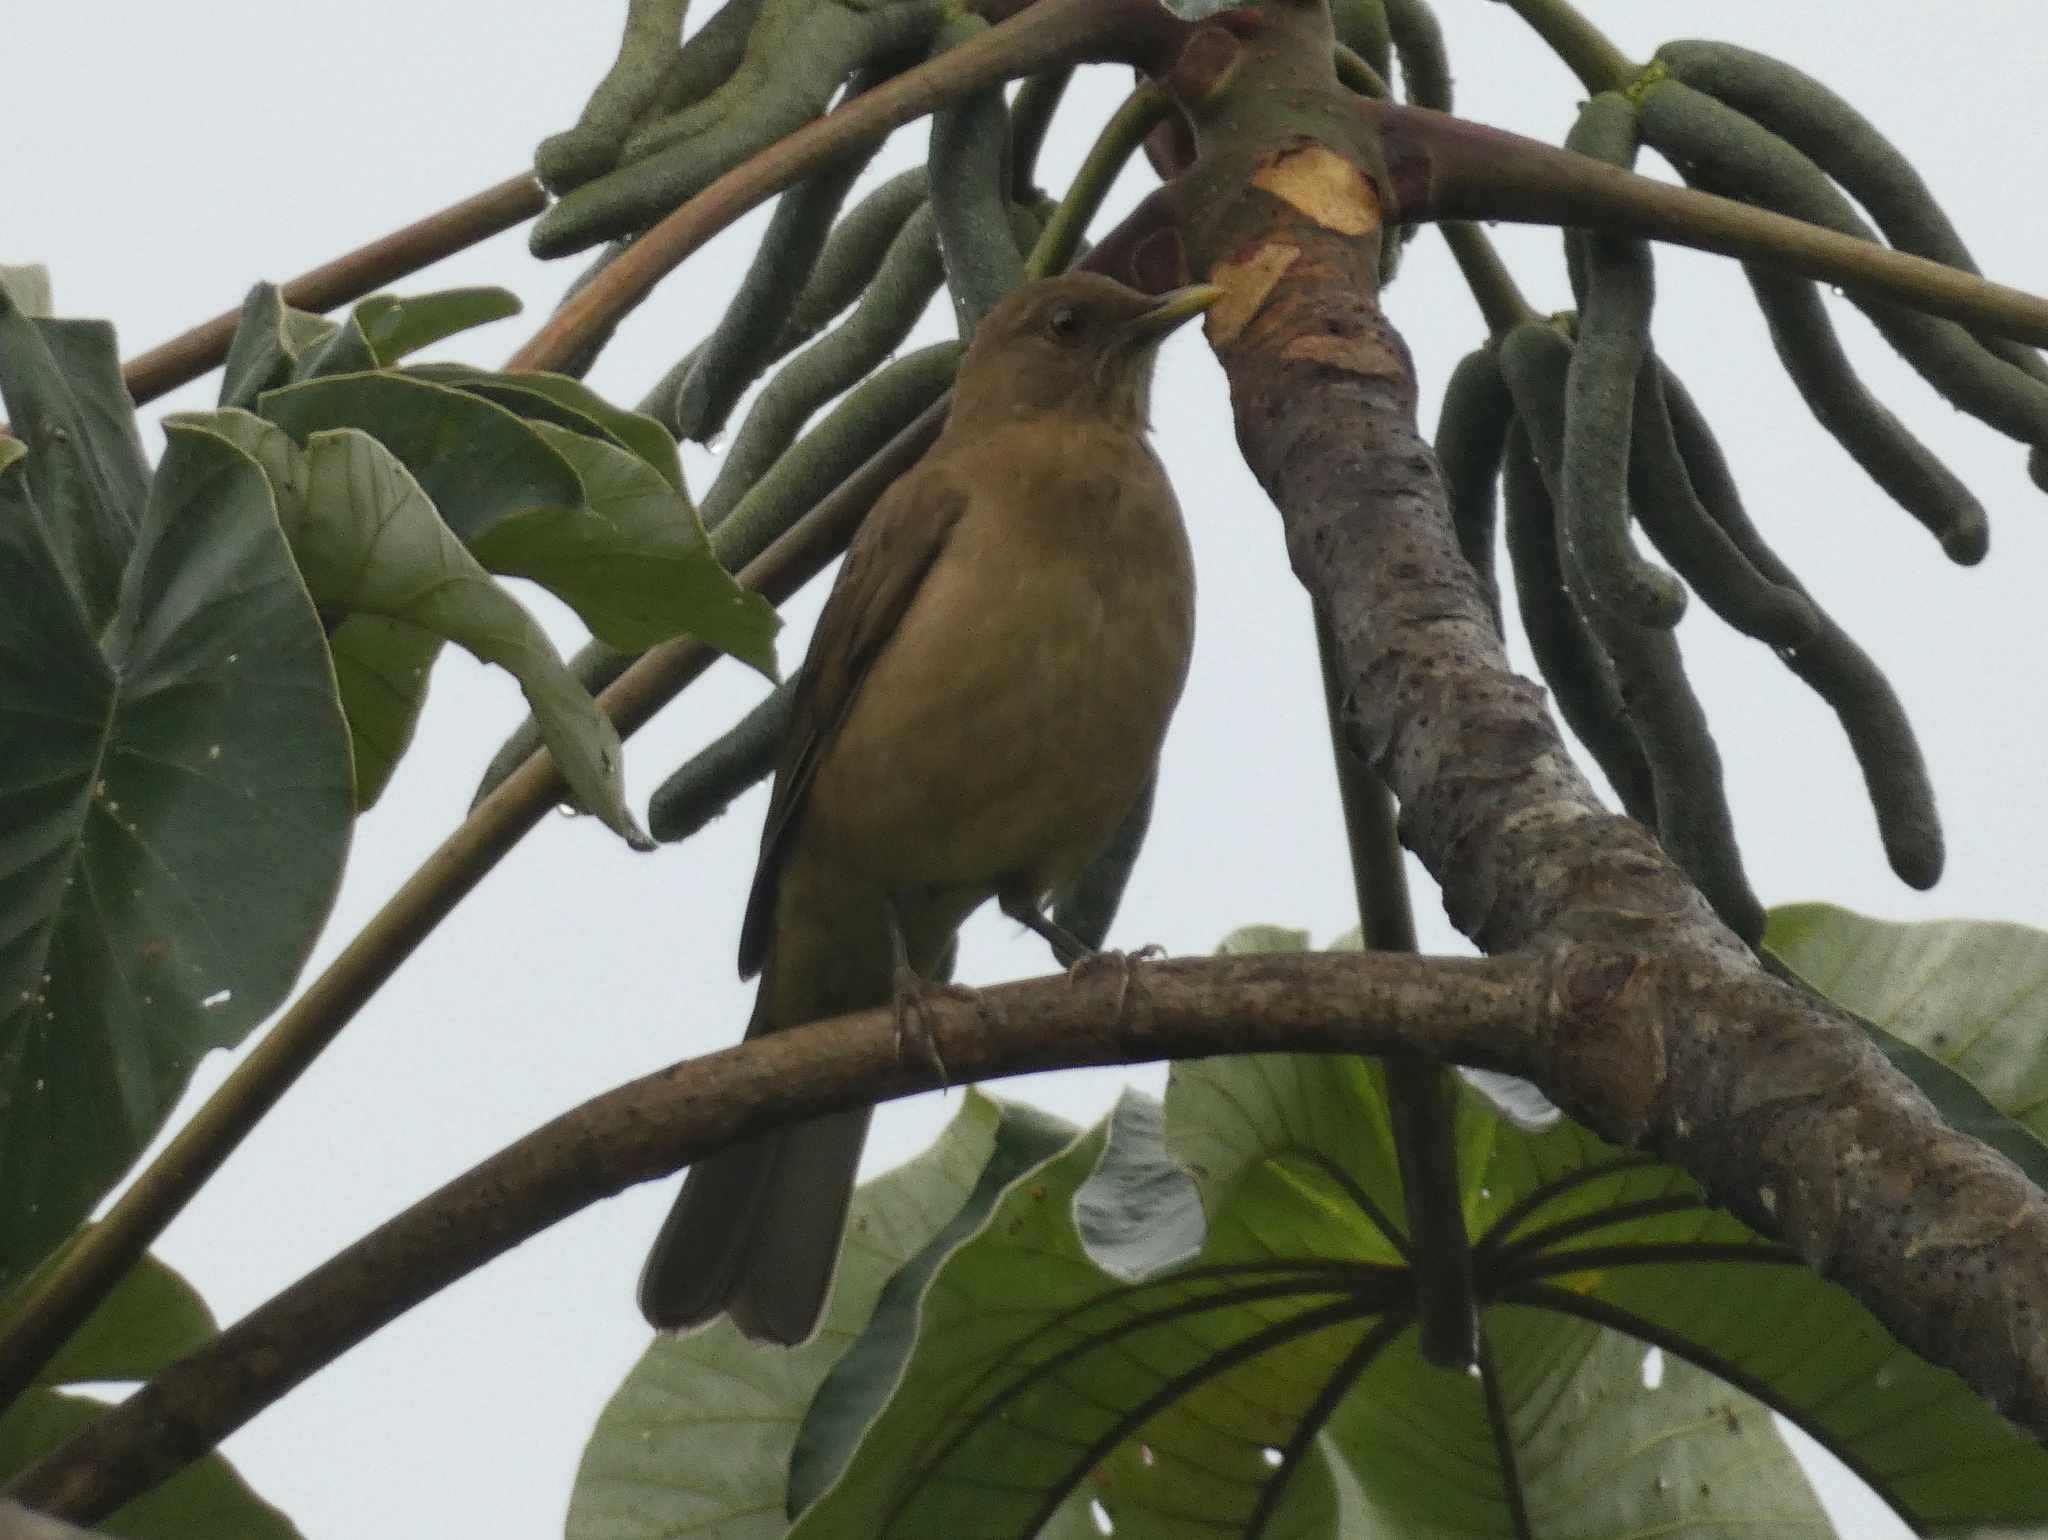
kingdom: Animalia
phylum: Chordata
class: Aves
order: Passeriformes
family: Turdidae
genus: Turdus
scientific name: Turdus grayi
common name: Clay-colored thrush
